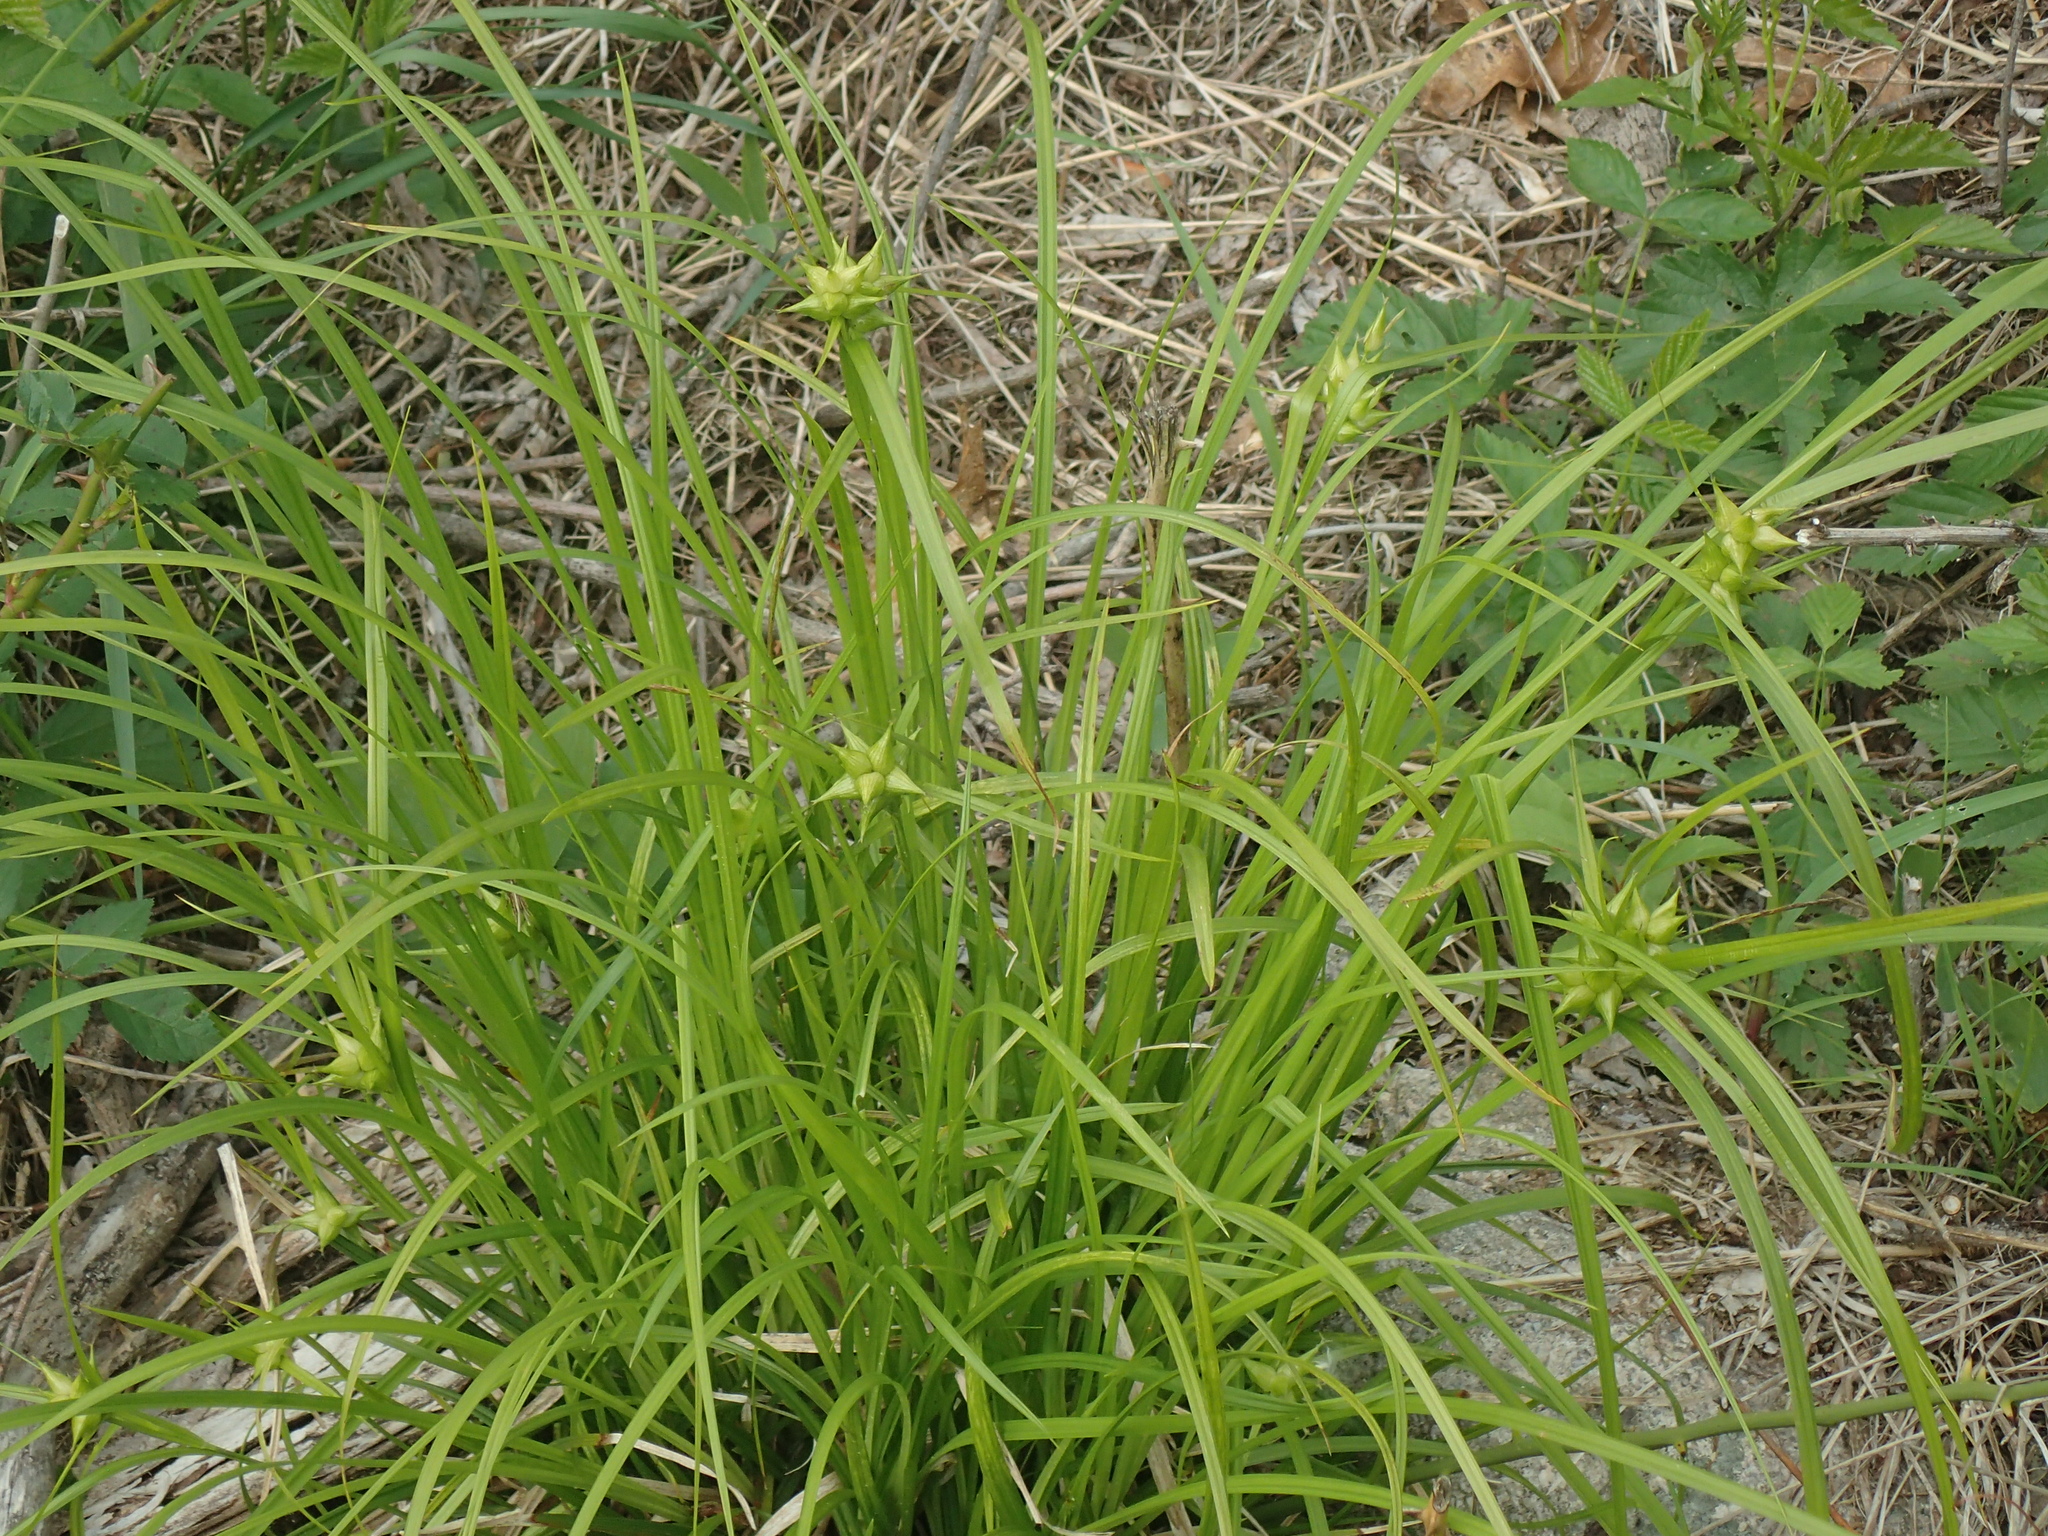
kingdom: Plantae
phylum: Tracheophyta
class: Liliopsida
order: Poales
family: Cyperaceae
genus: Carex
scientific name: Carex intumescens
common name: Greater bladder sedge
